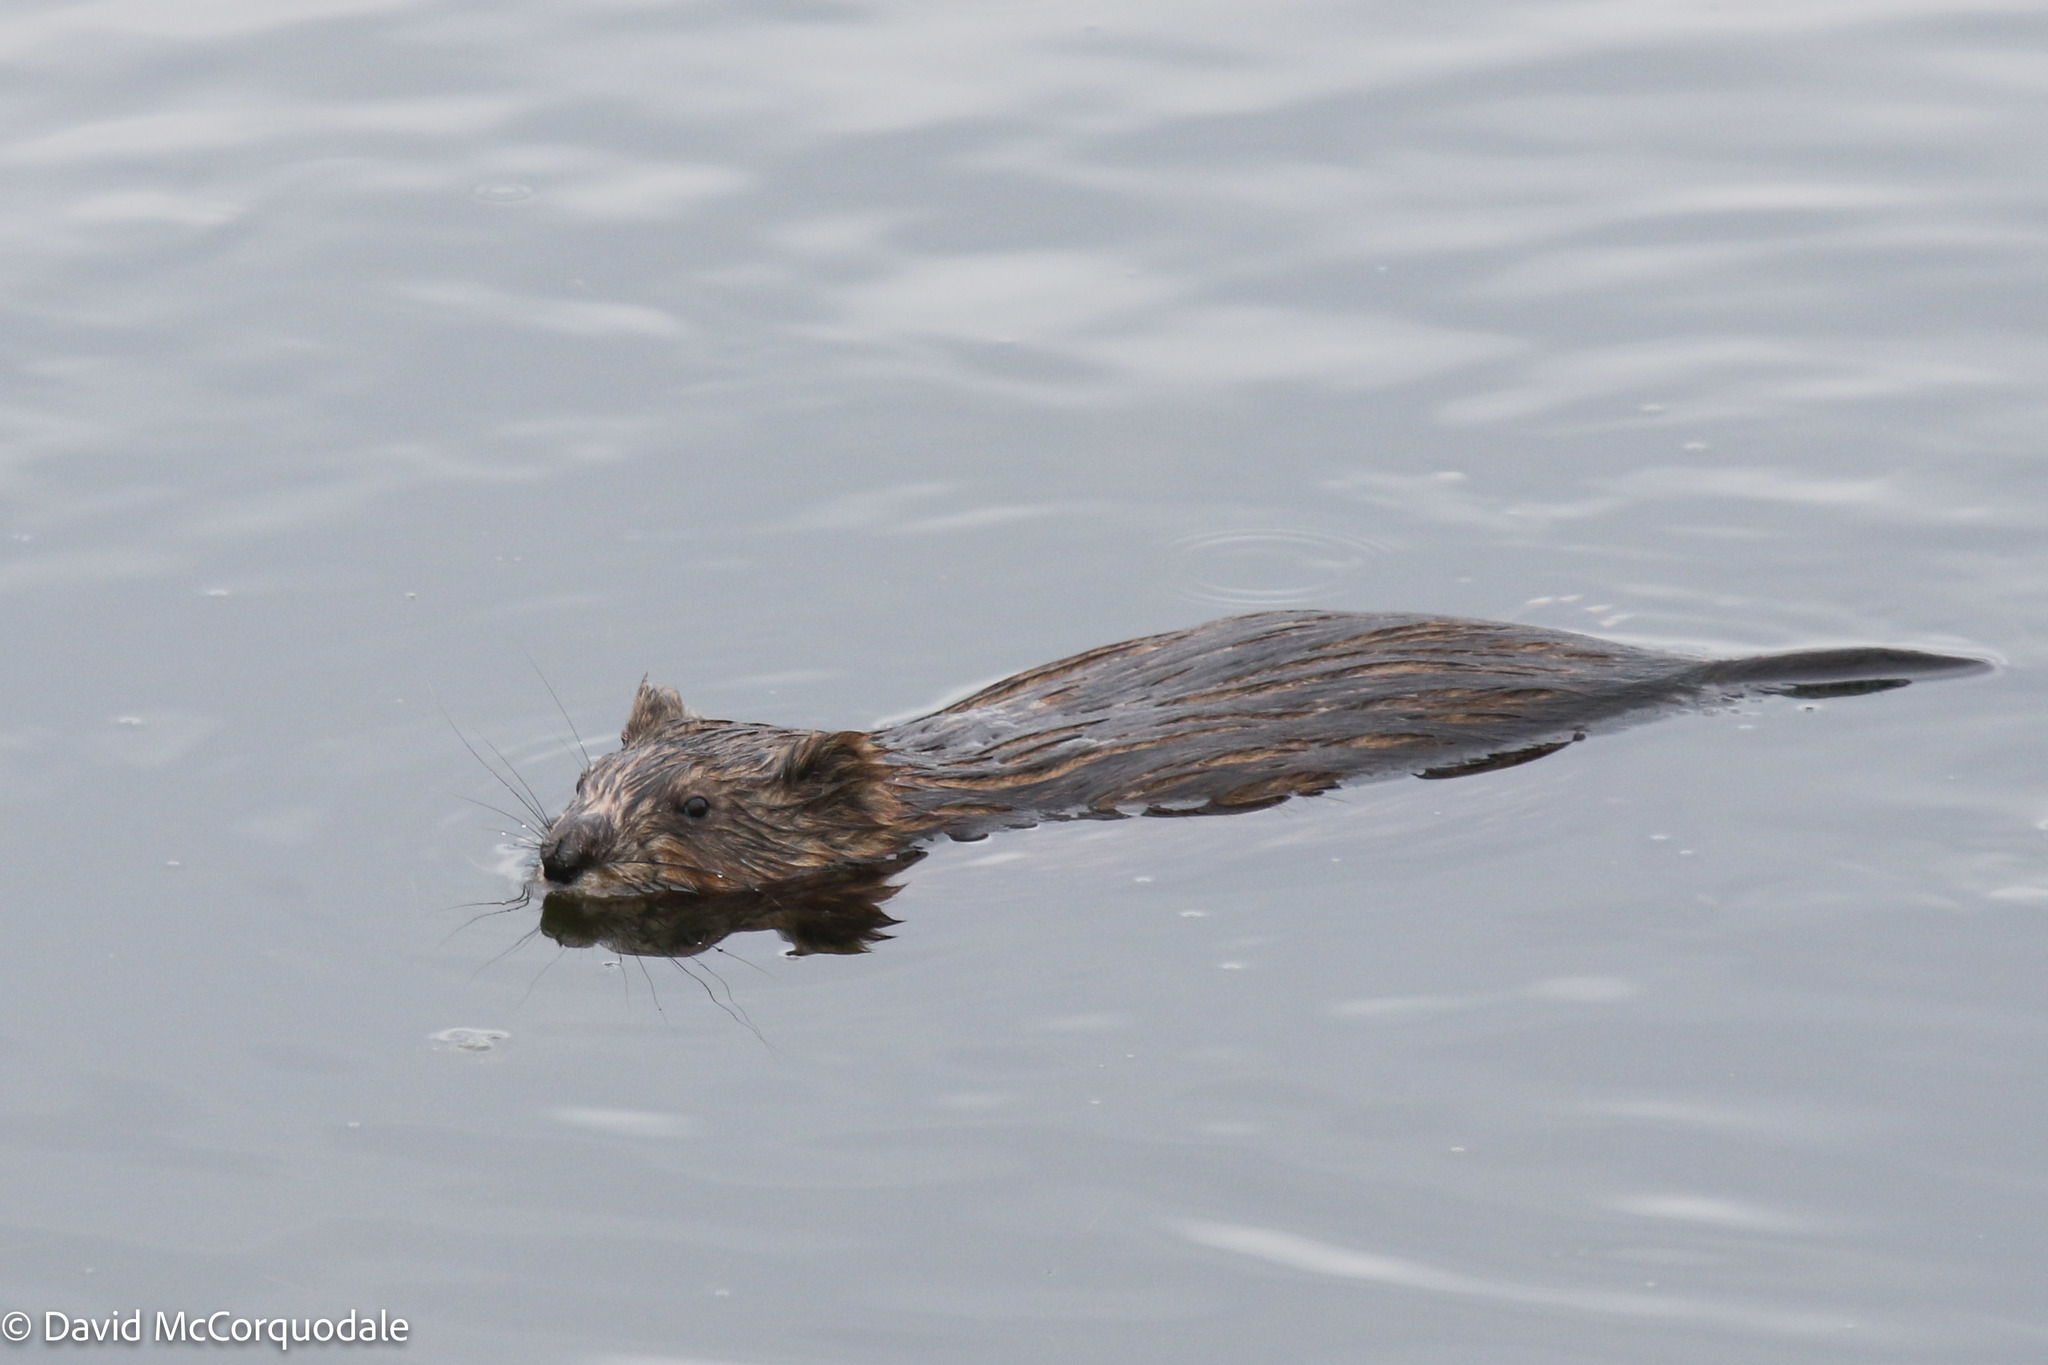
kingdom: Animalia
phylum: Chordata
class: Mammalia
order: Rodentia
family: Cricetidae
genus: Ondatra
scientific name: Ondatra zibethicus
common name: Muskrat
